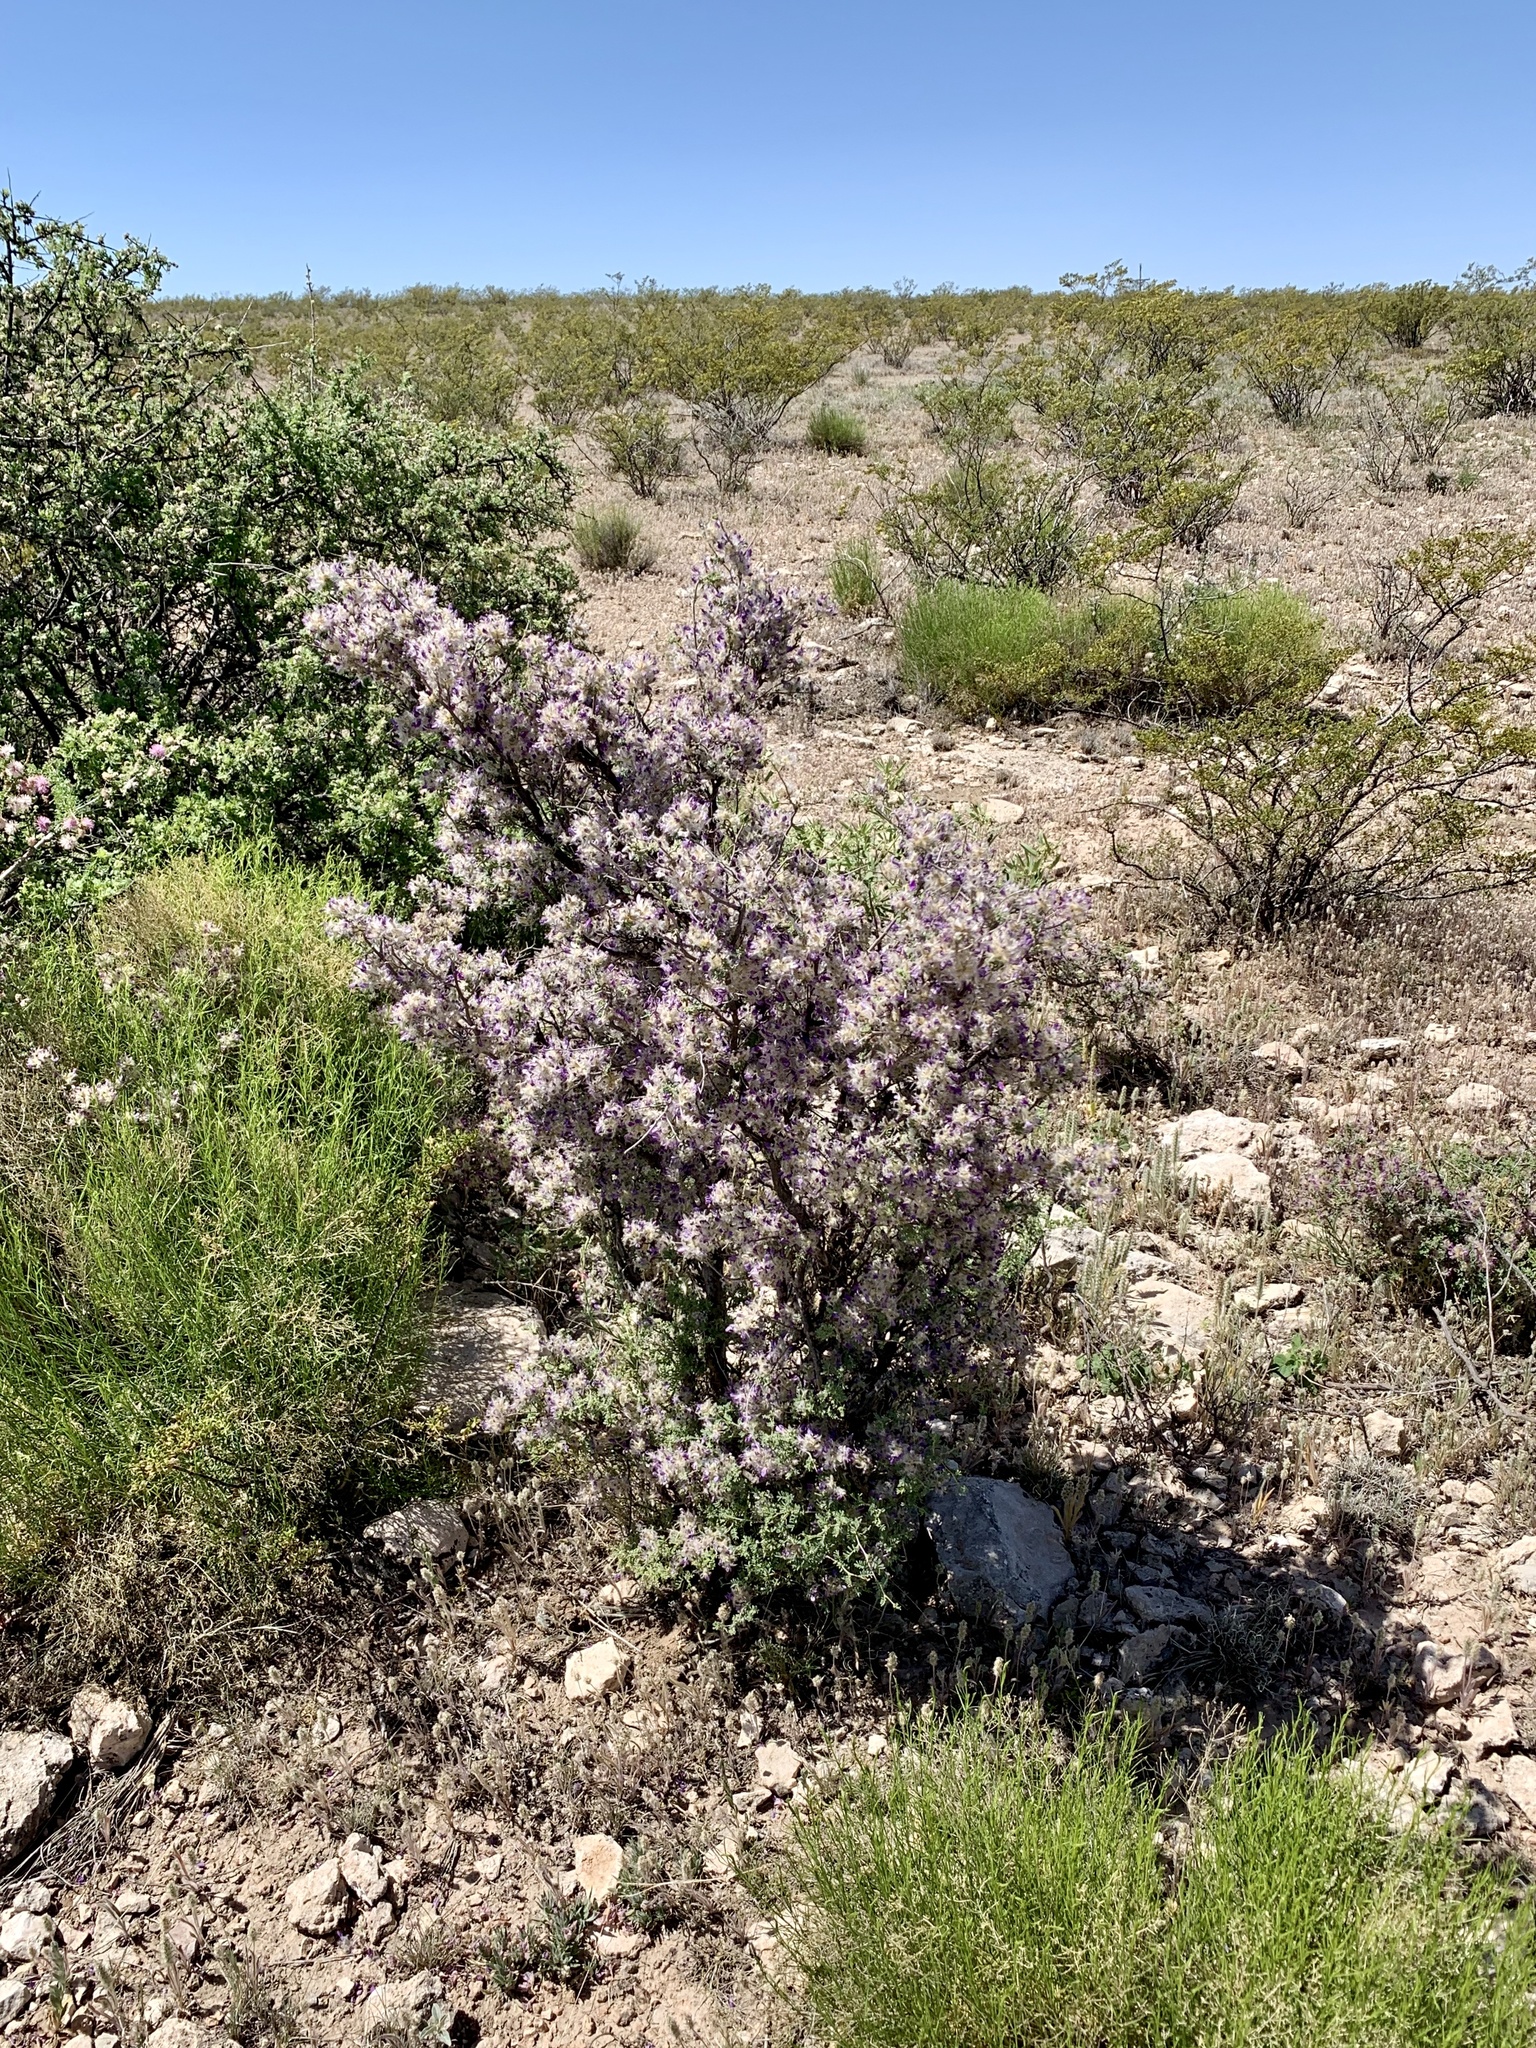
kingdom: Plantae
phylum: Tracheophyta
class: Magnoliopsida
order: Fabales
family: Fabaceae
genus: Dalea
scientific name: Dalea formosa
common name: Feather-plume dalea
